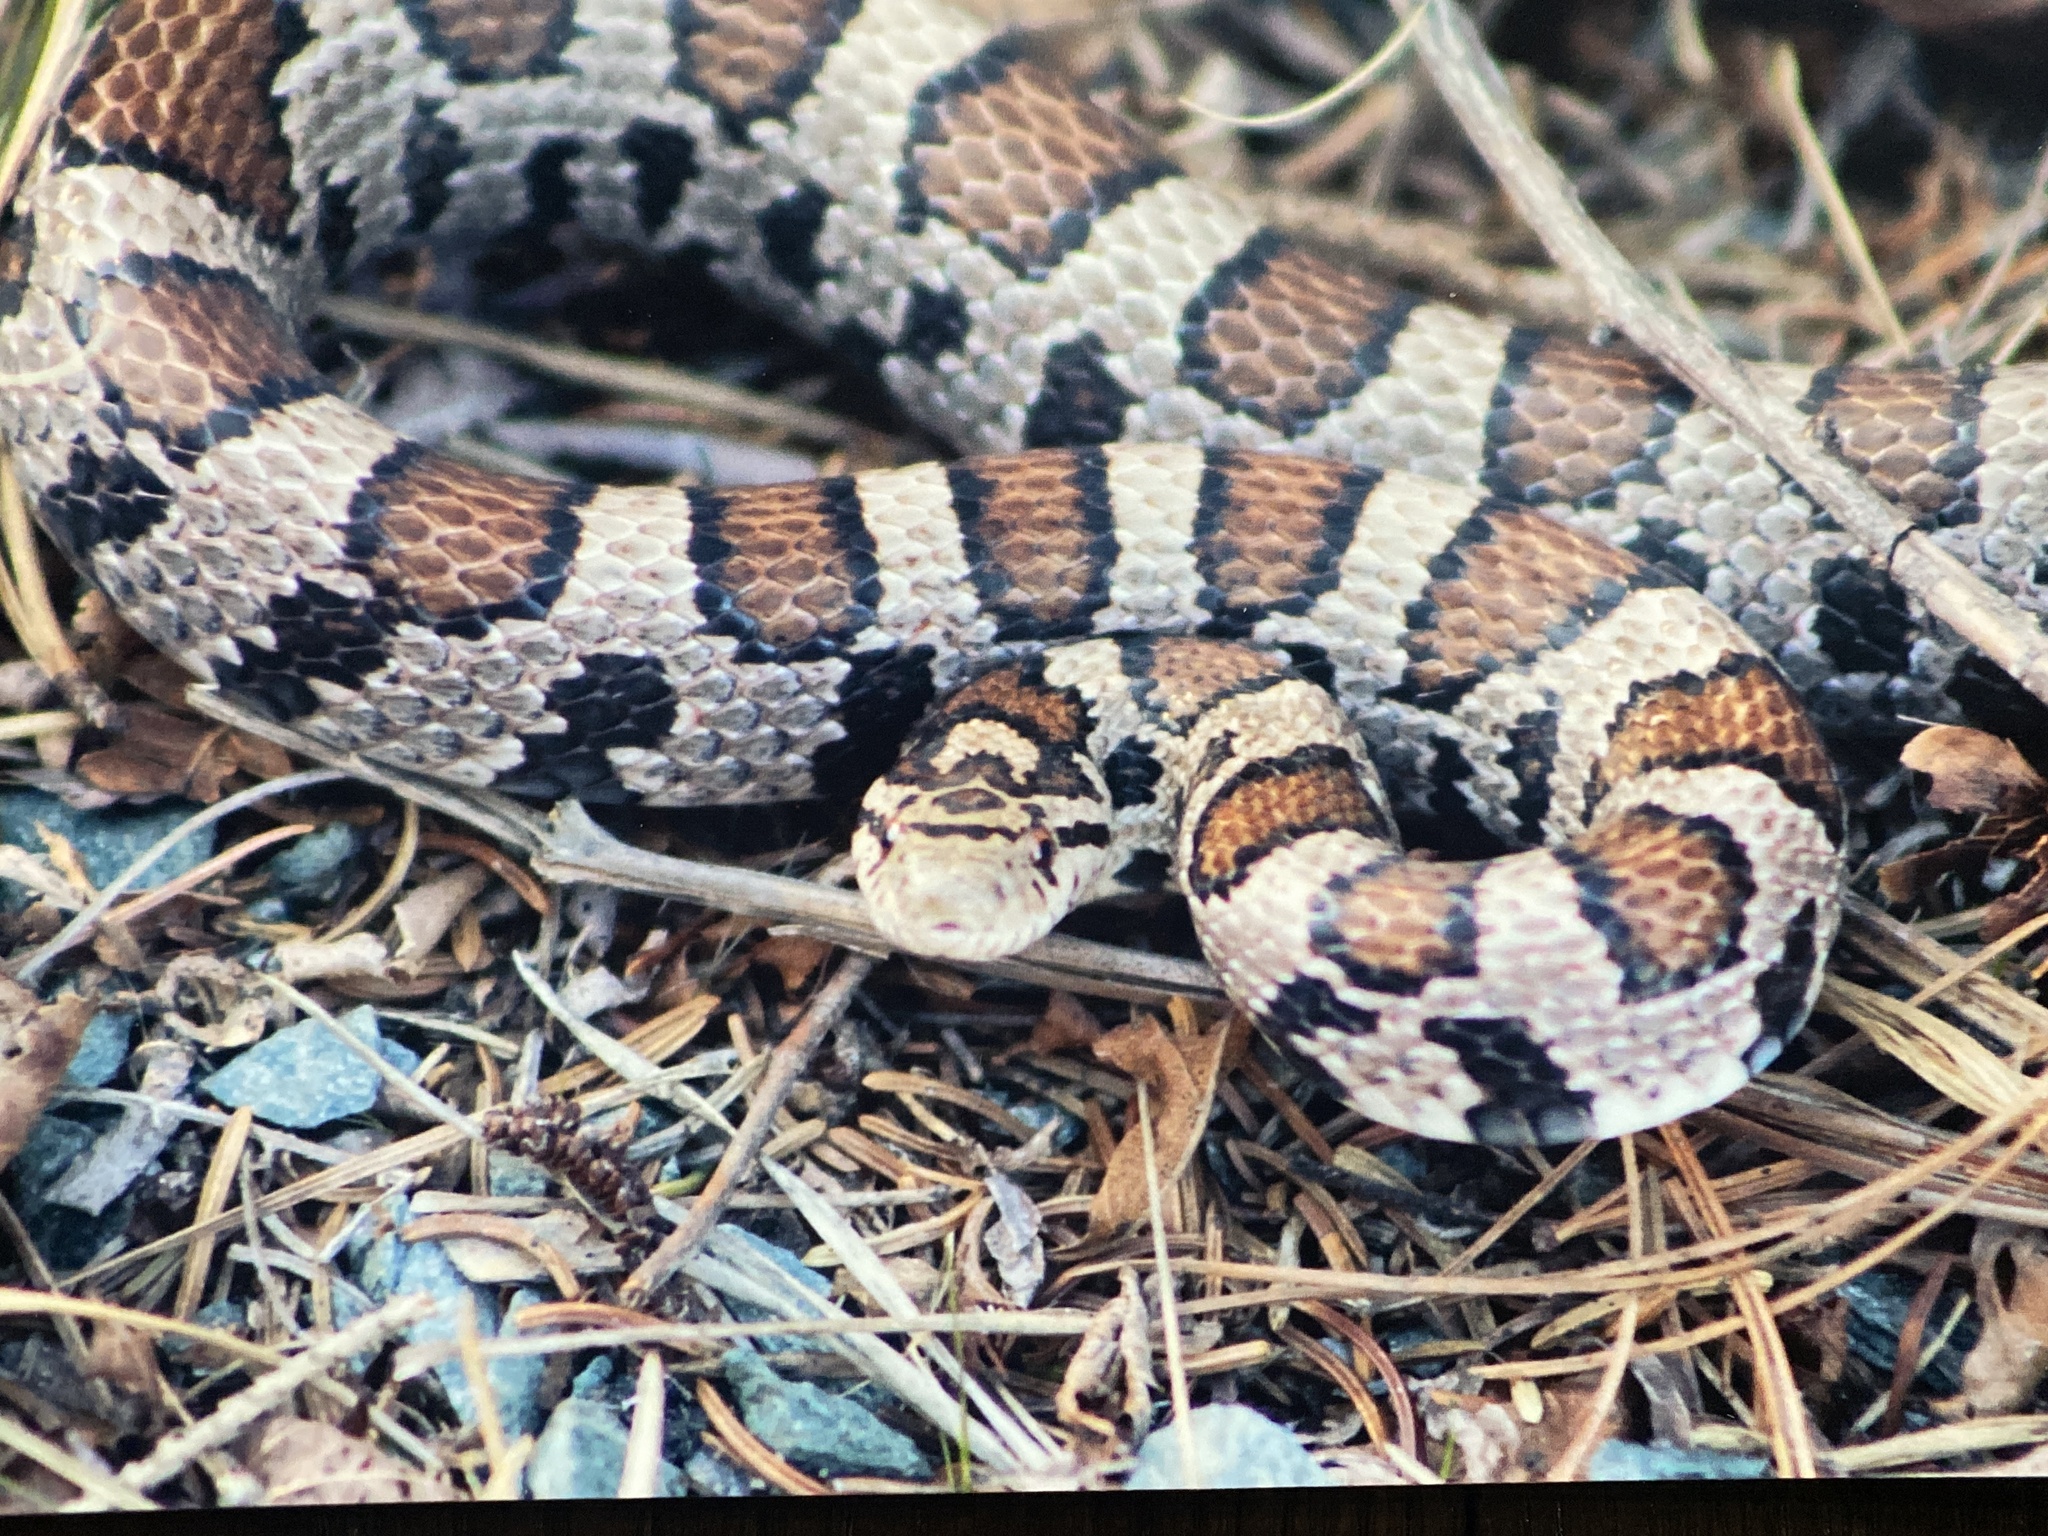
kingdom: Animalia
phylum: Chordata
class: Squamata
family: Colubridae
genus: Lampropeltis
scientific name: Lampropeltis triangulum
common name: Eastern milksnake
